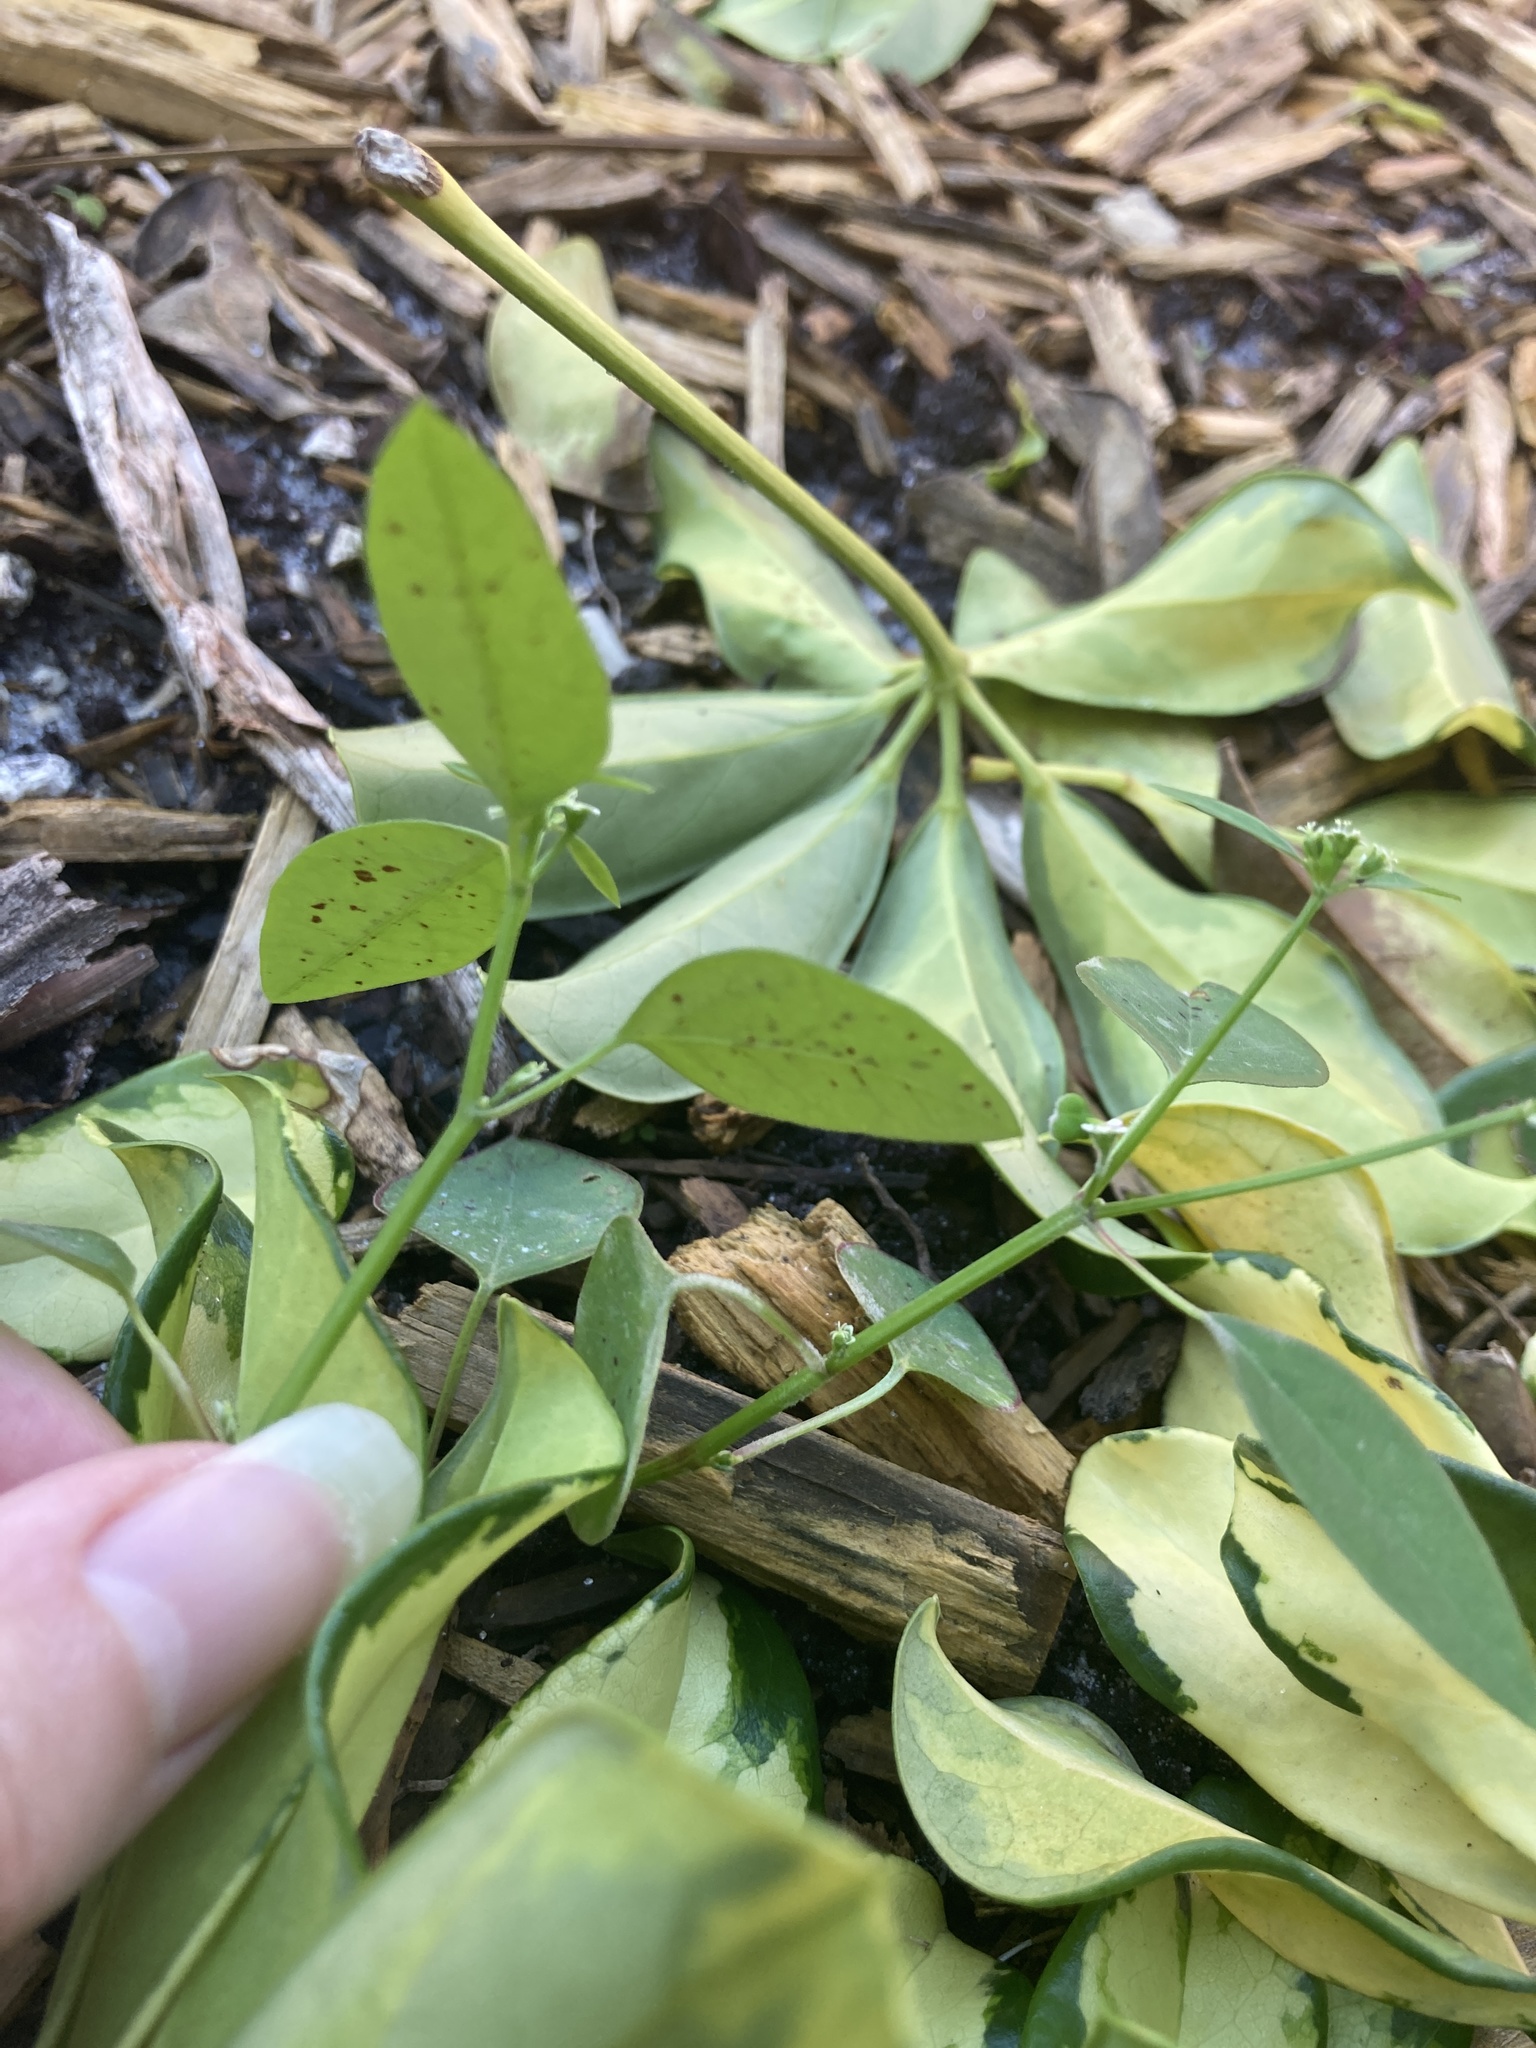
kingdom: Plantae
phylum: Tracheophyta
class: Magnoliopsida
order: Malpighiales
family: Euphorbiaceae
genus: Euphorbia
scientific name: Euphorbia graminea
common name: Grassleaf spurge
